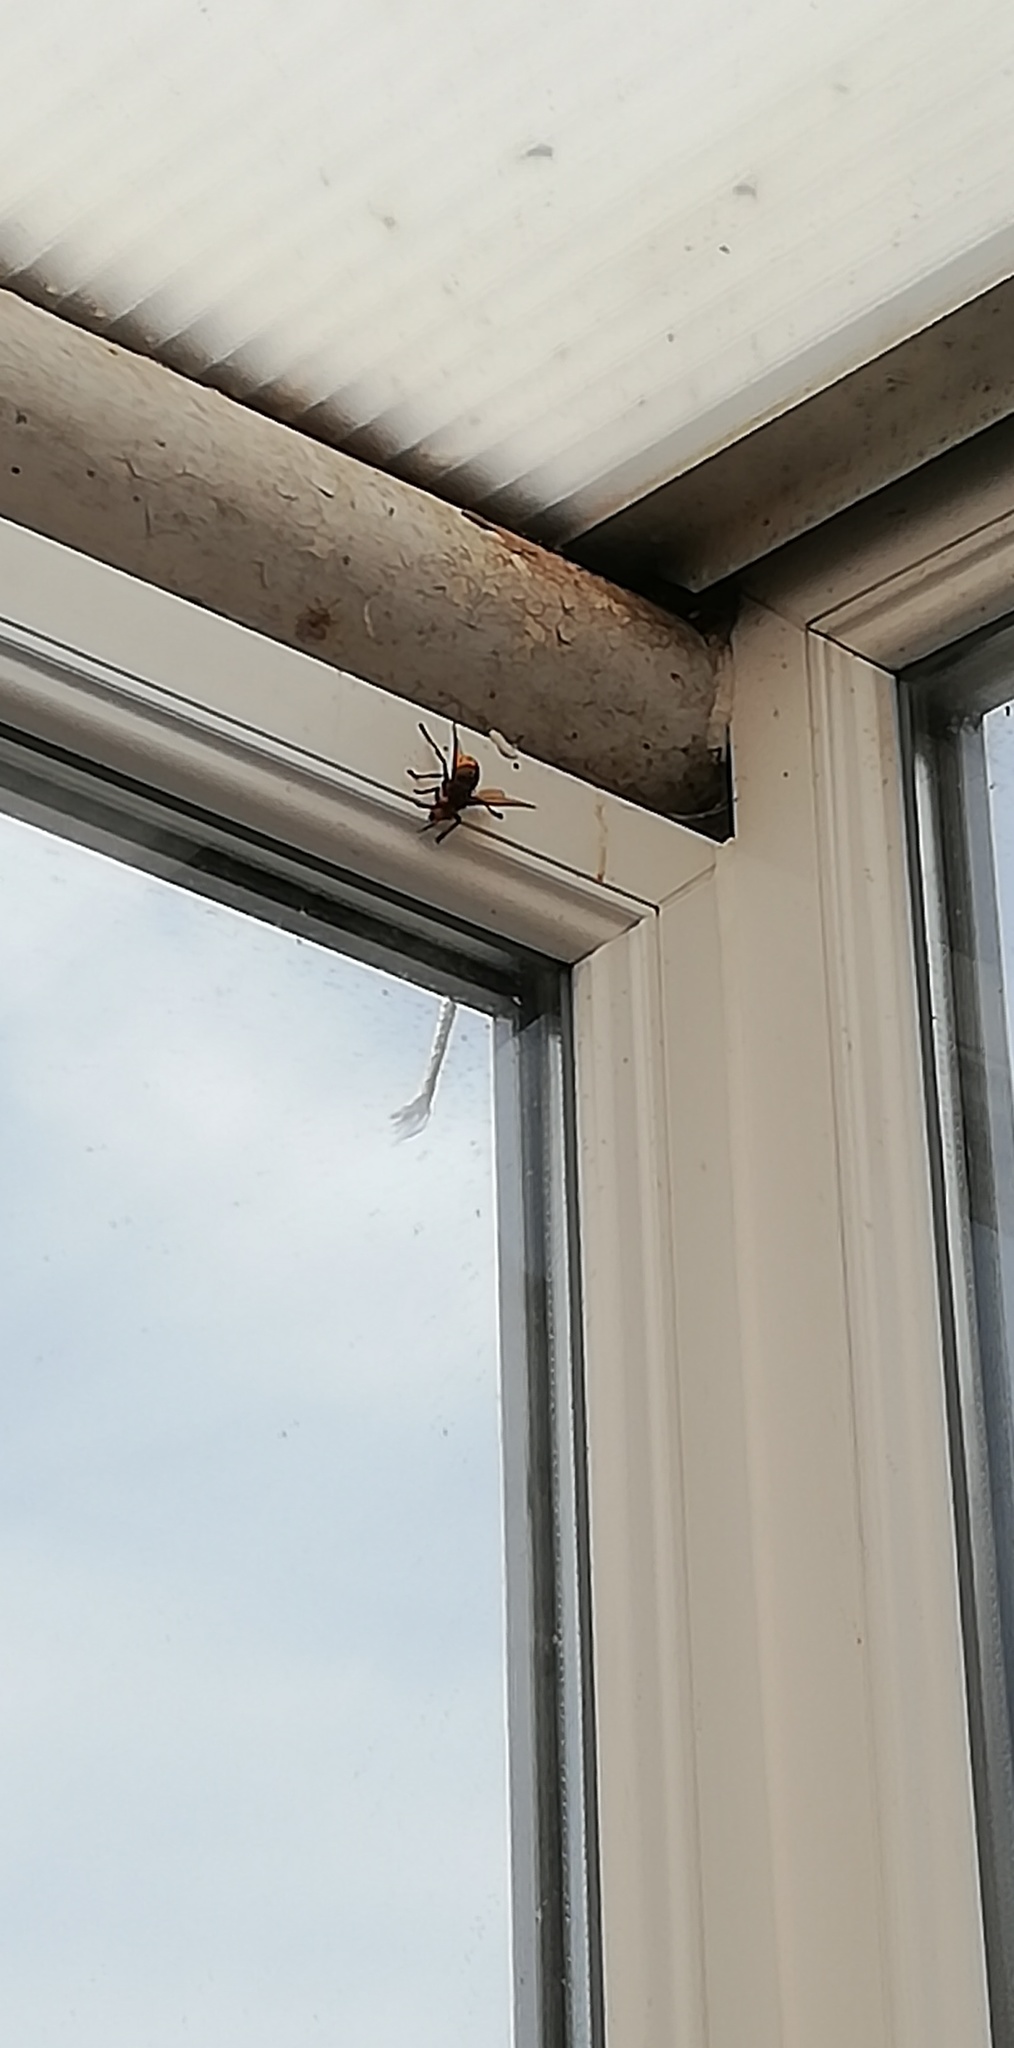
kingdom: Animalia
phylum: Arthropoda
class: Insecta
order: Hymenoptera
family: Vespidae
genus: Vespa
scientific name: Vespa crabro
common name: Hornet
